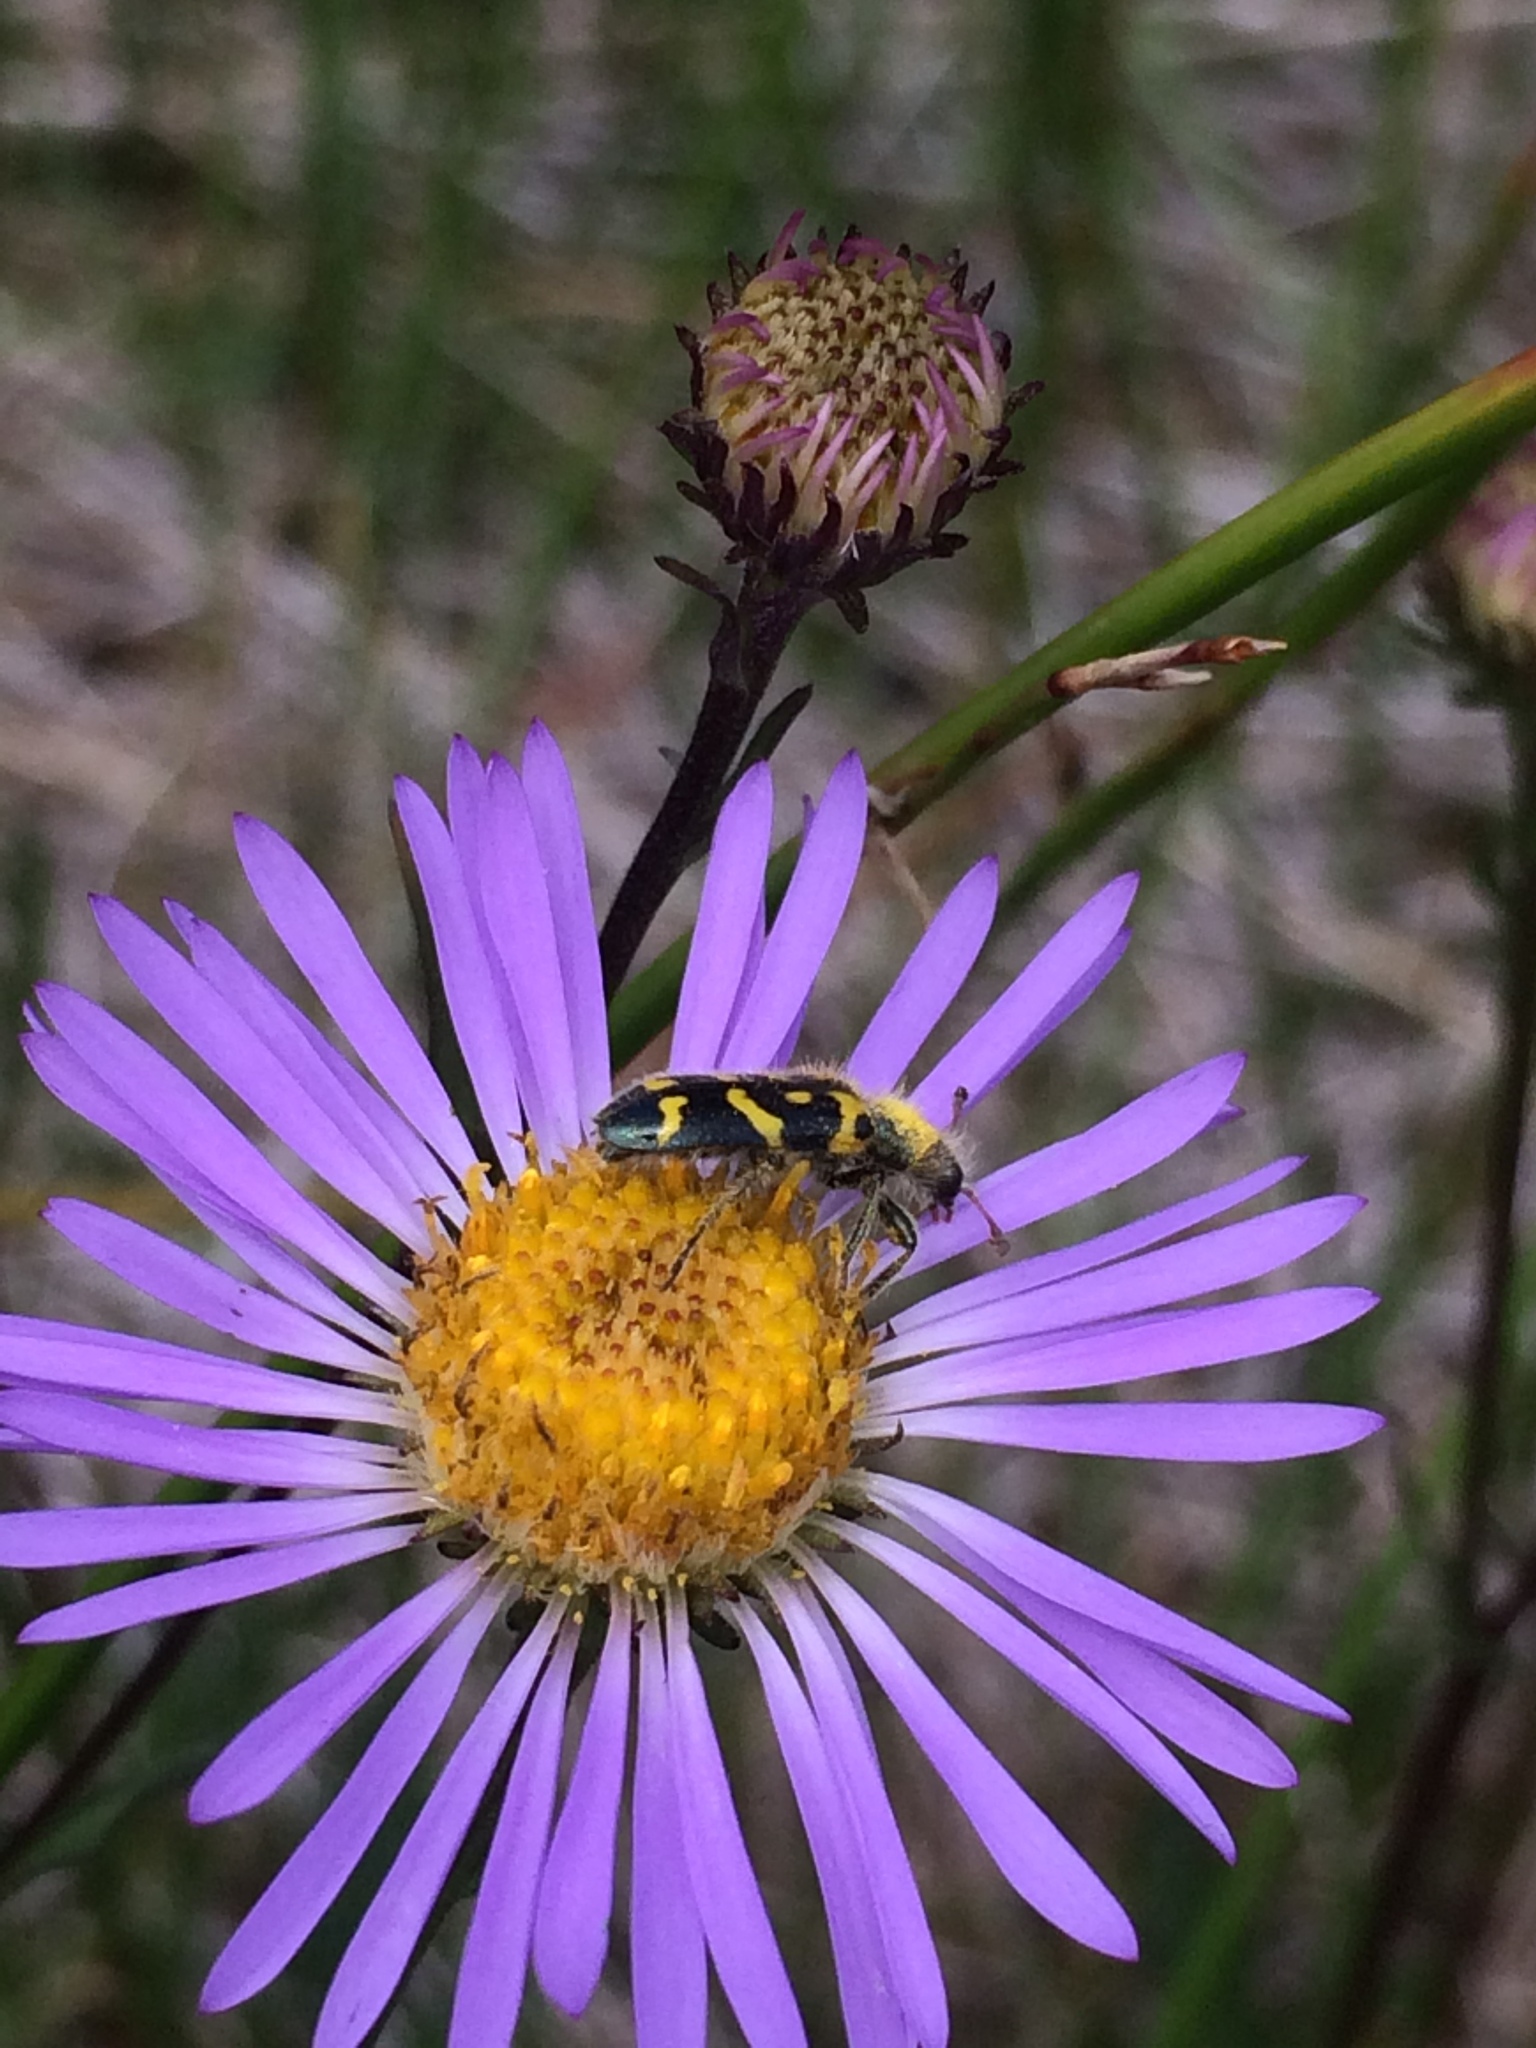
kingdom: Animalia
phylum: Arthropoda
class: Insecta
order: Coleoptera
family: Cleridae
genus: Trichodes
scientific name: Trichodes ornatus
